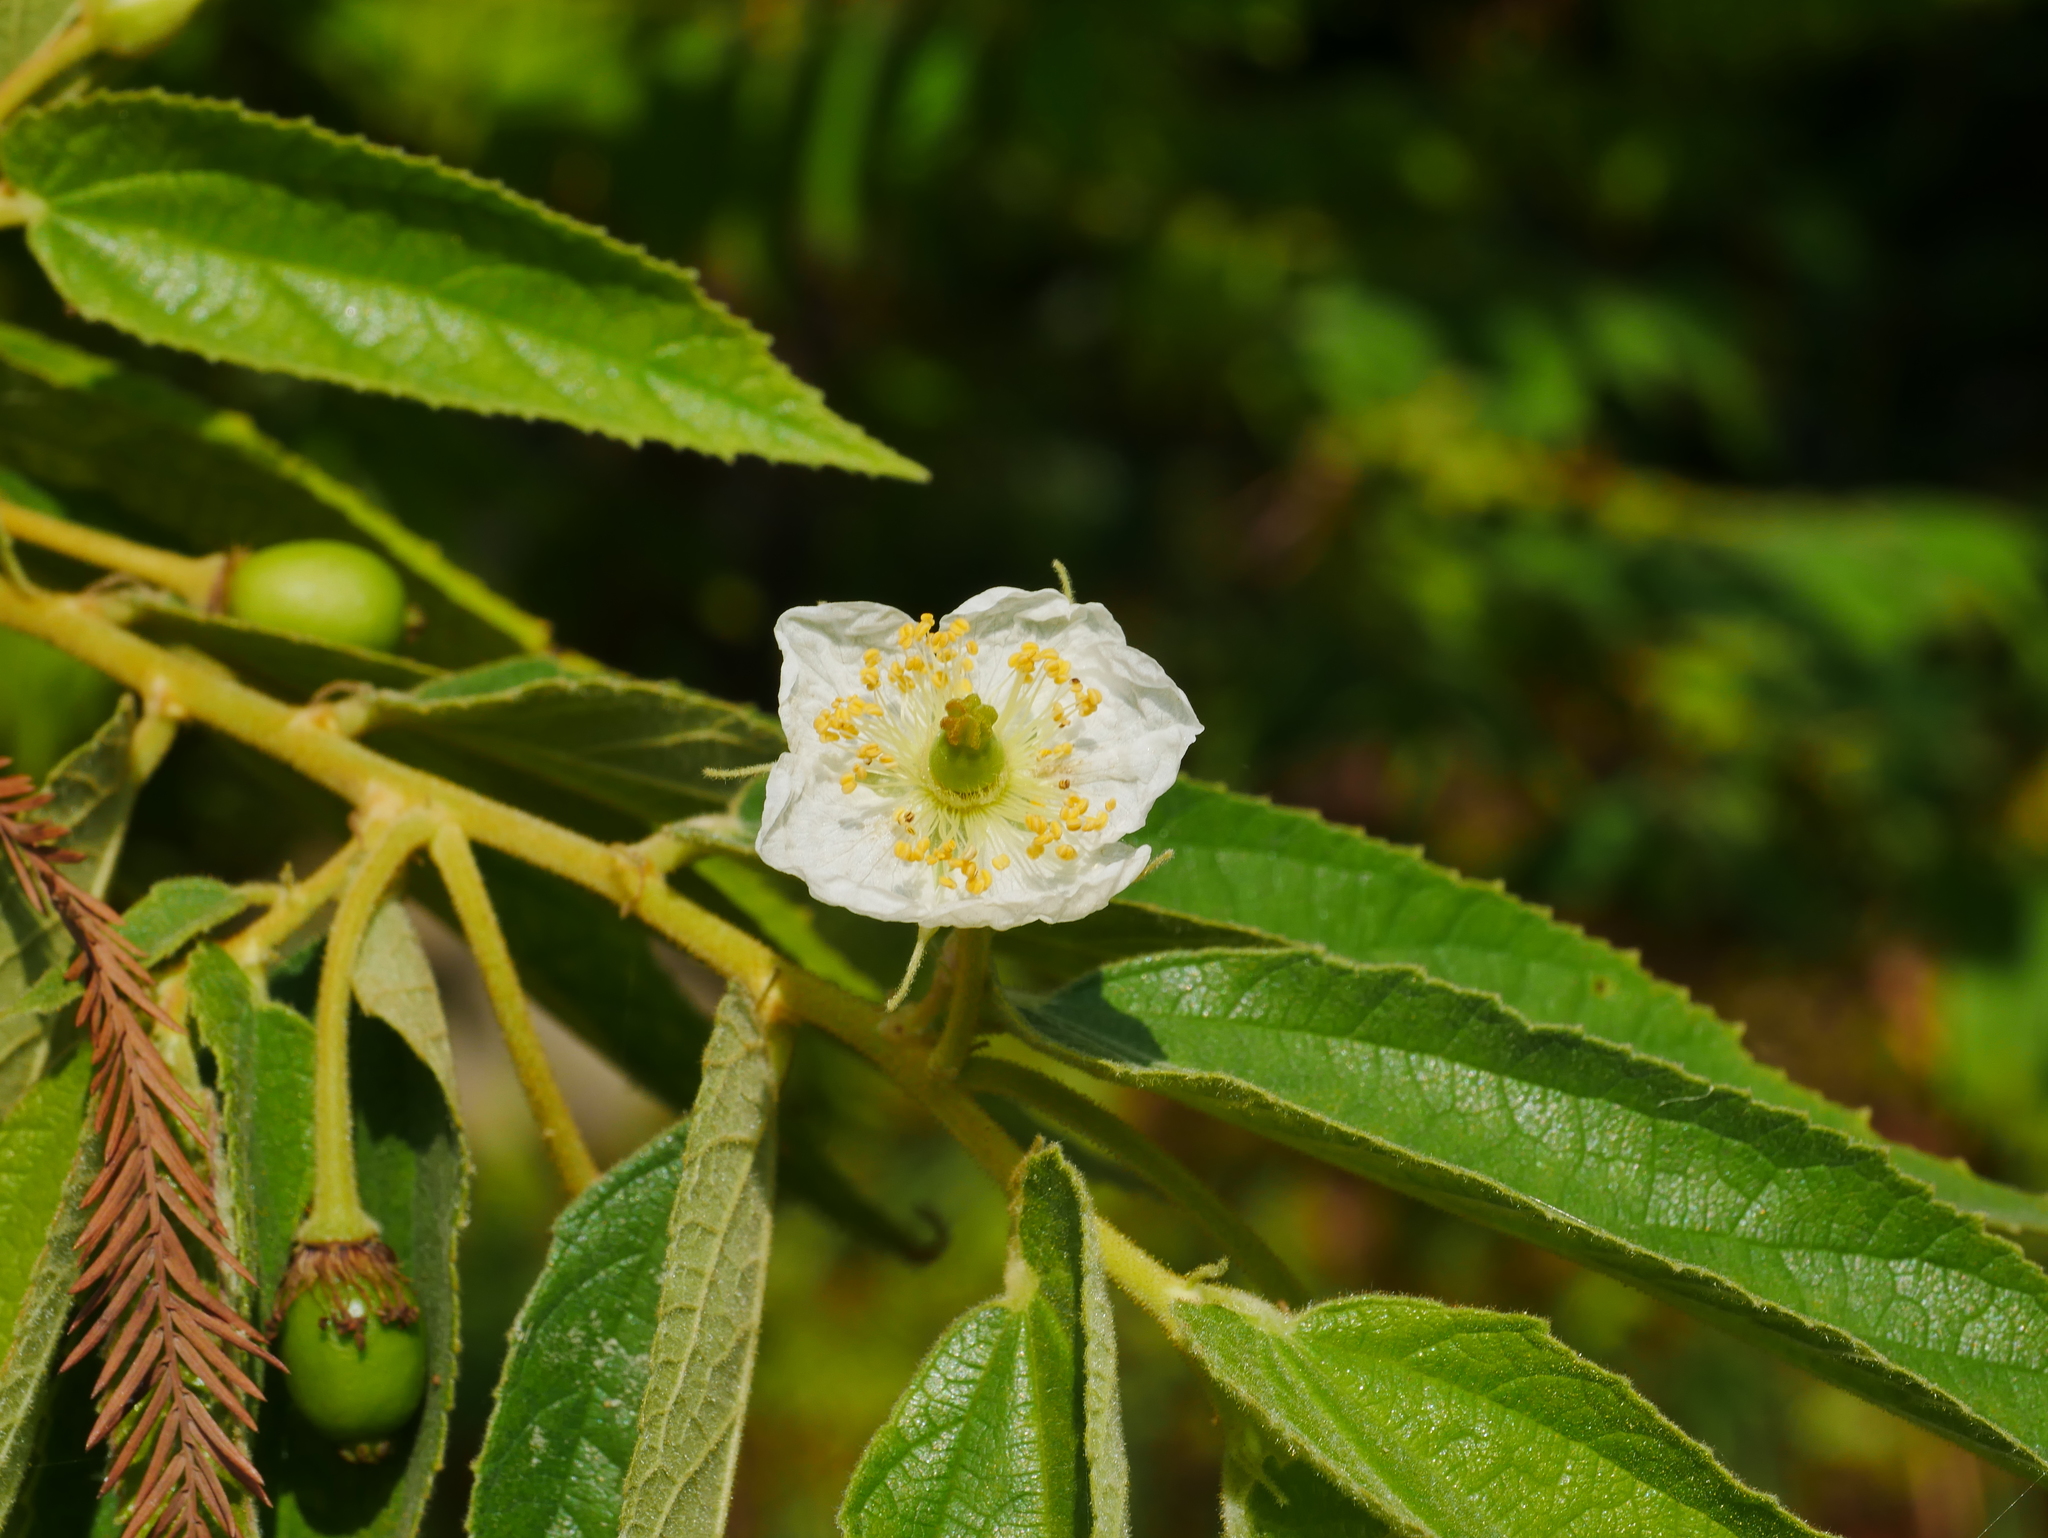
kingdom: Plantae
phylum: Tracheophyta
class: Magnoliopsida
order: Malvales
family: Muntingiaceae
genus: Muntingia
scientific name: Muntingia calabura
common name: Strawberrytree
